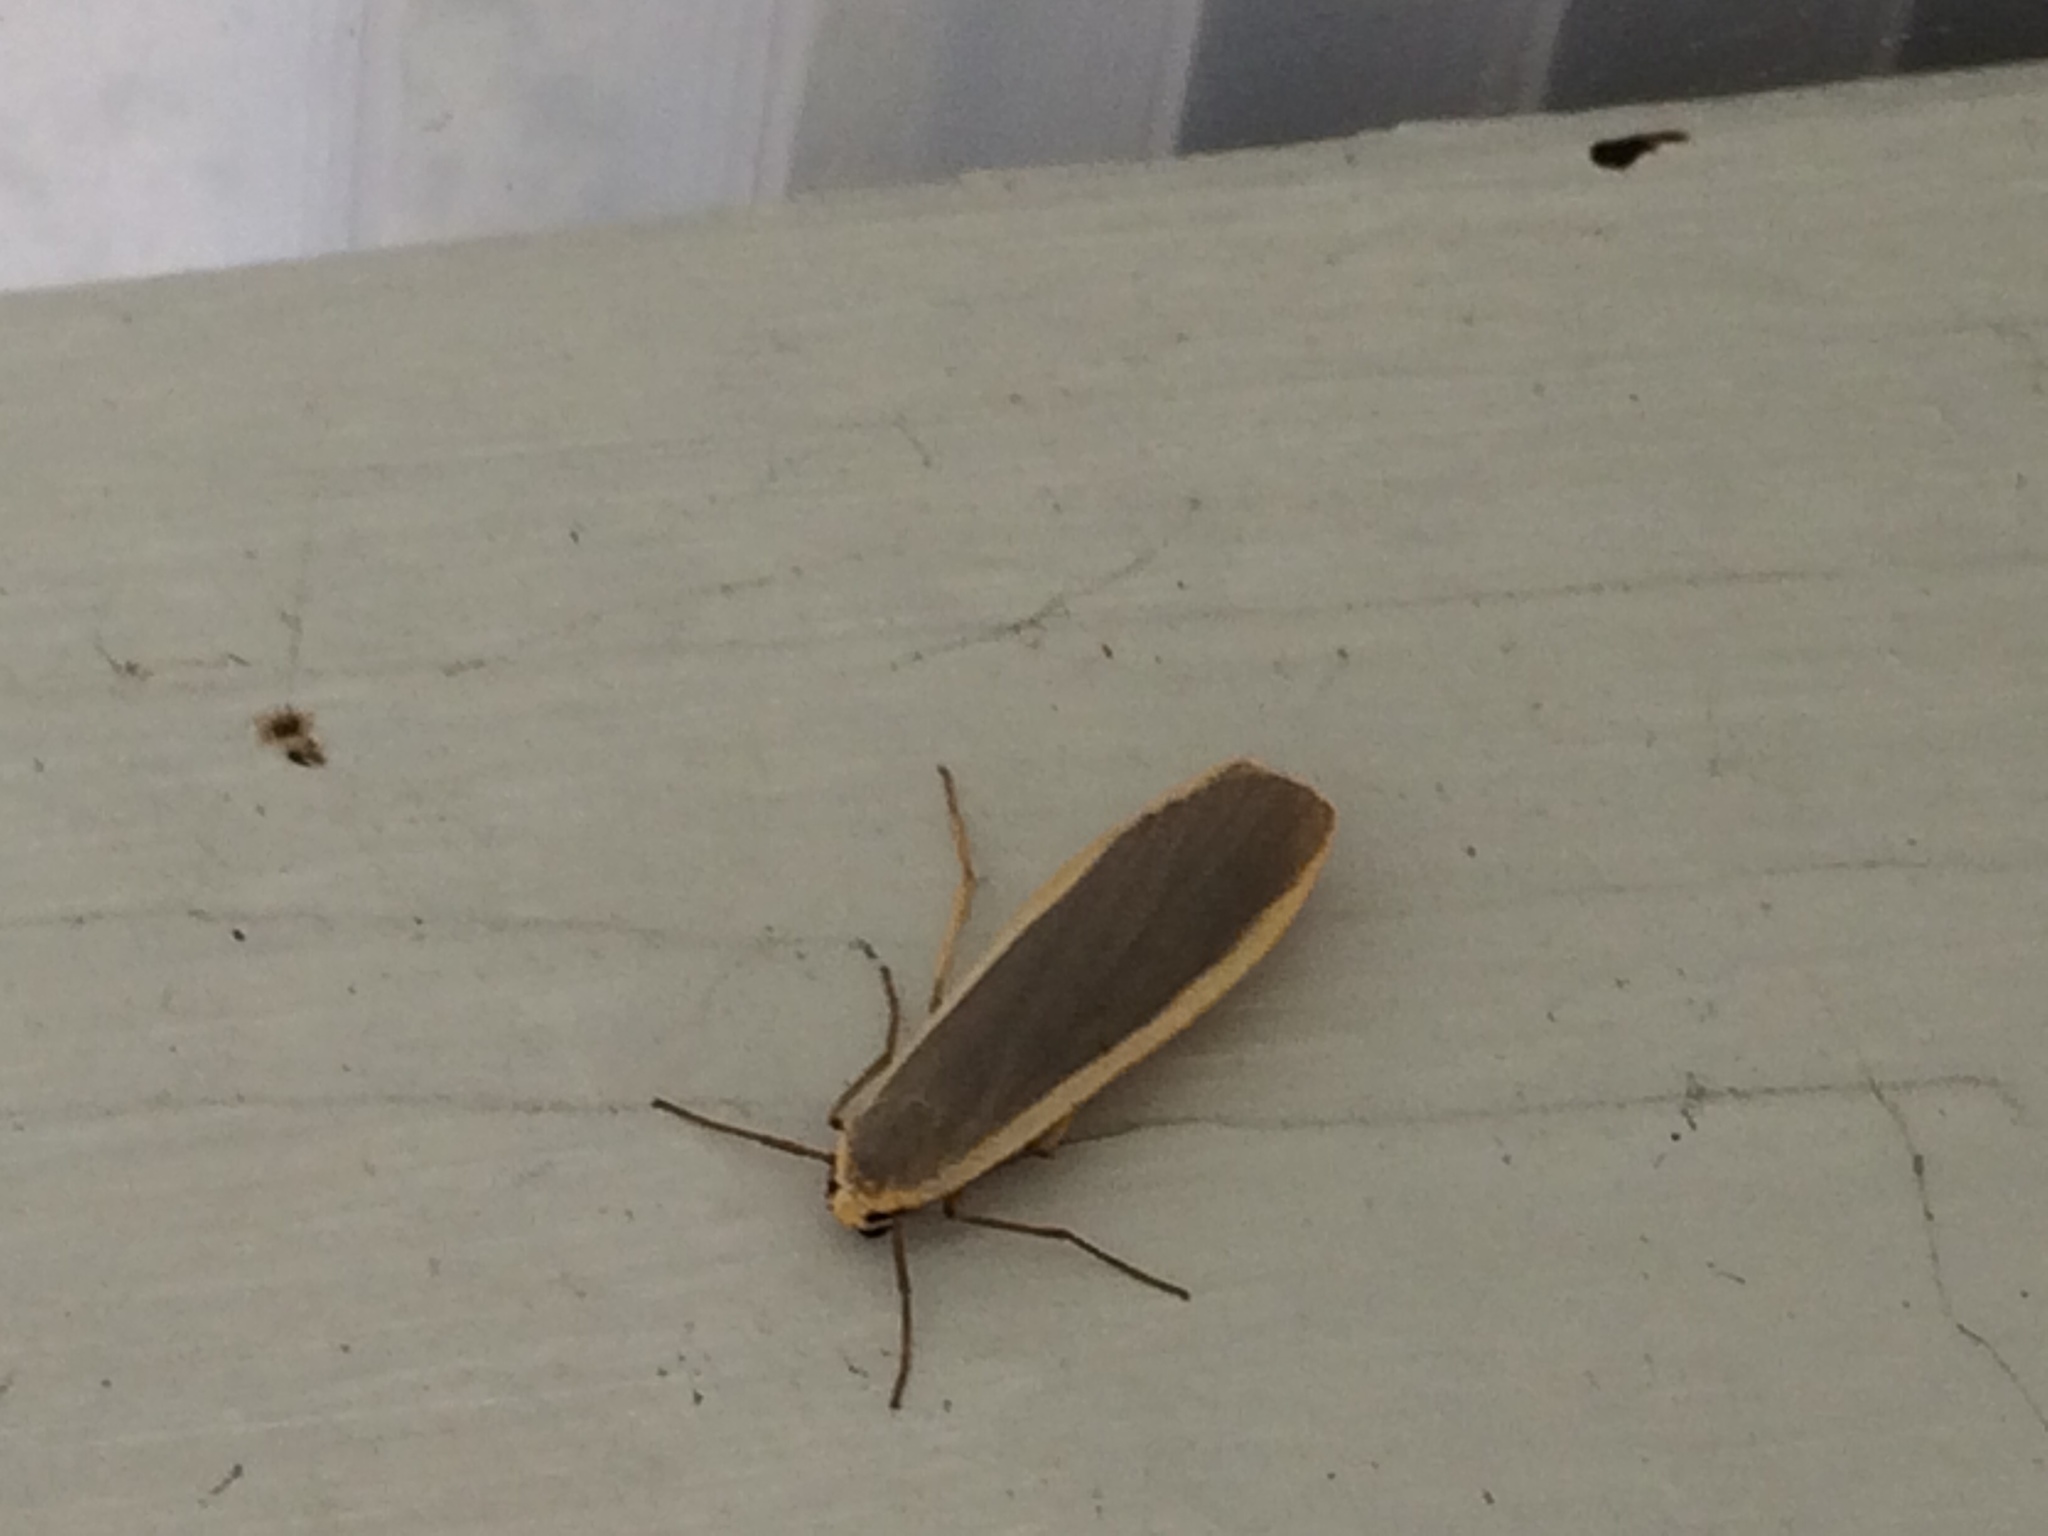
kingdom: Animalia
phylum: Arthropoda
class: Insecta
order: Lepidoptera
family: Erebidae
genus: Nyea
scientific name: Nyea lurideola
